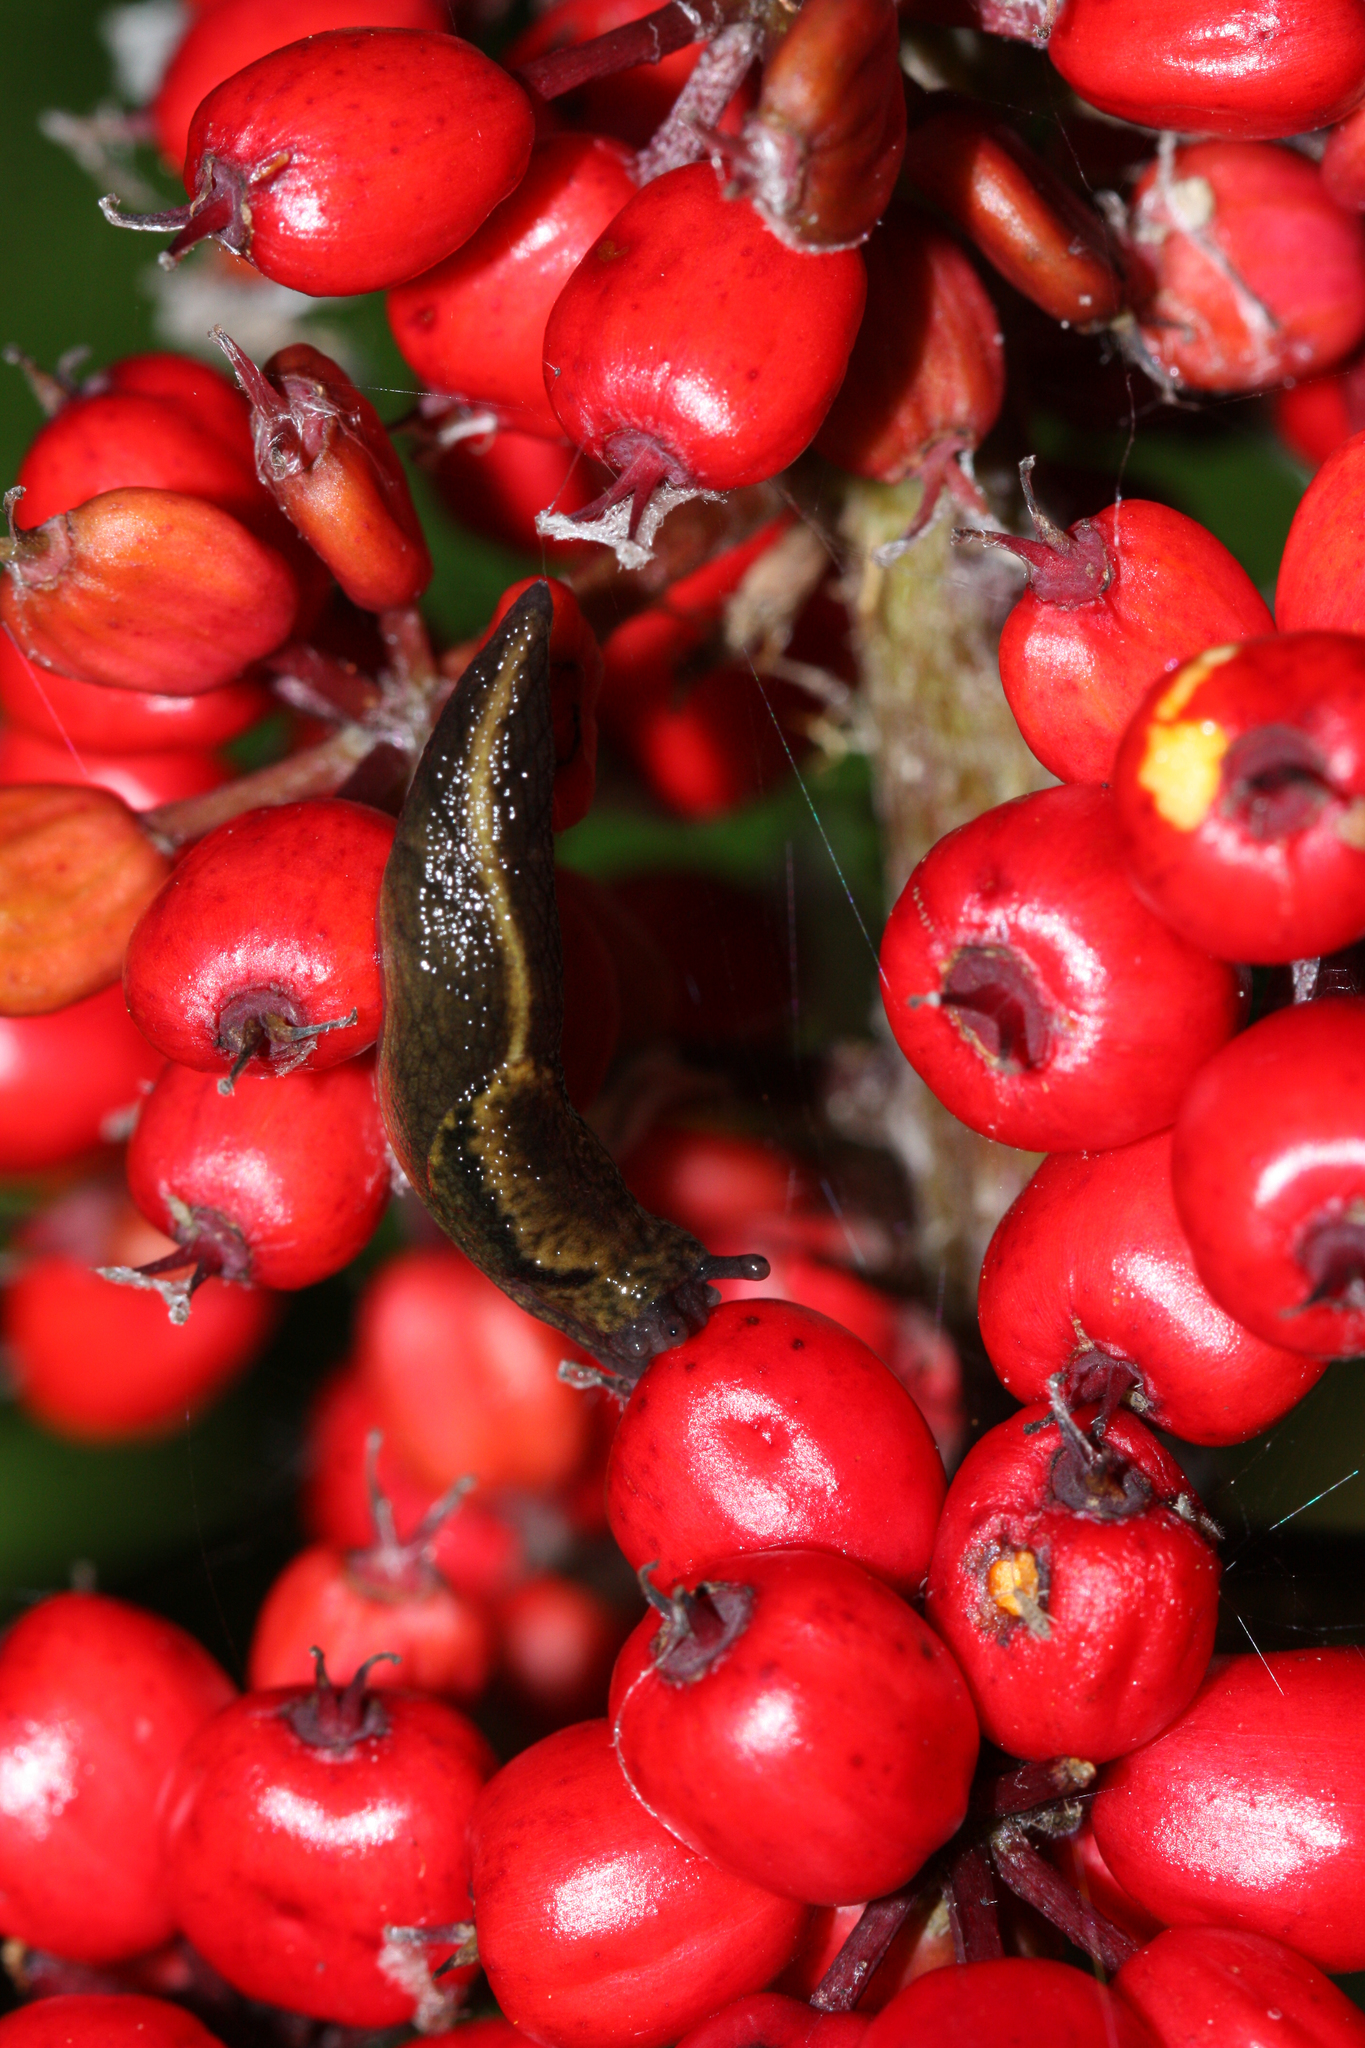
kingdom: Animalia
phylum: Mollusca
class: Gastropoda
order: Stylommatophora
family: Ariolimacidae
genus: Prophysaon
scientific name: Prophysaon andersonii
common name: Reticulate taildropper
